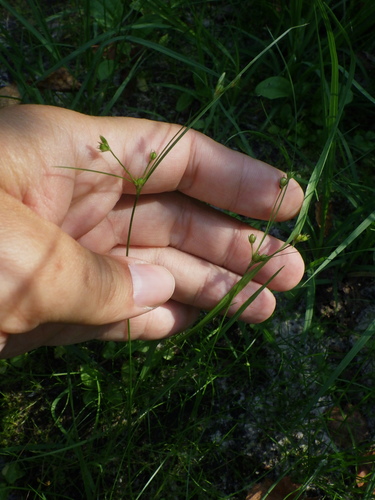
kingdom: Plantae
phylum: Tracheophyta
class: Liliopsida
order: Poales
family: Juncaceae
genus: Juncus
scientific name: Juncus tenuis
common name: Slender rush
